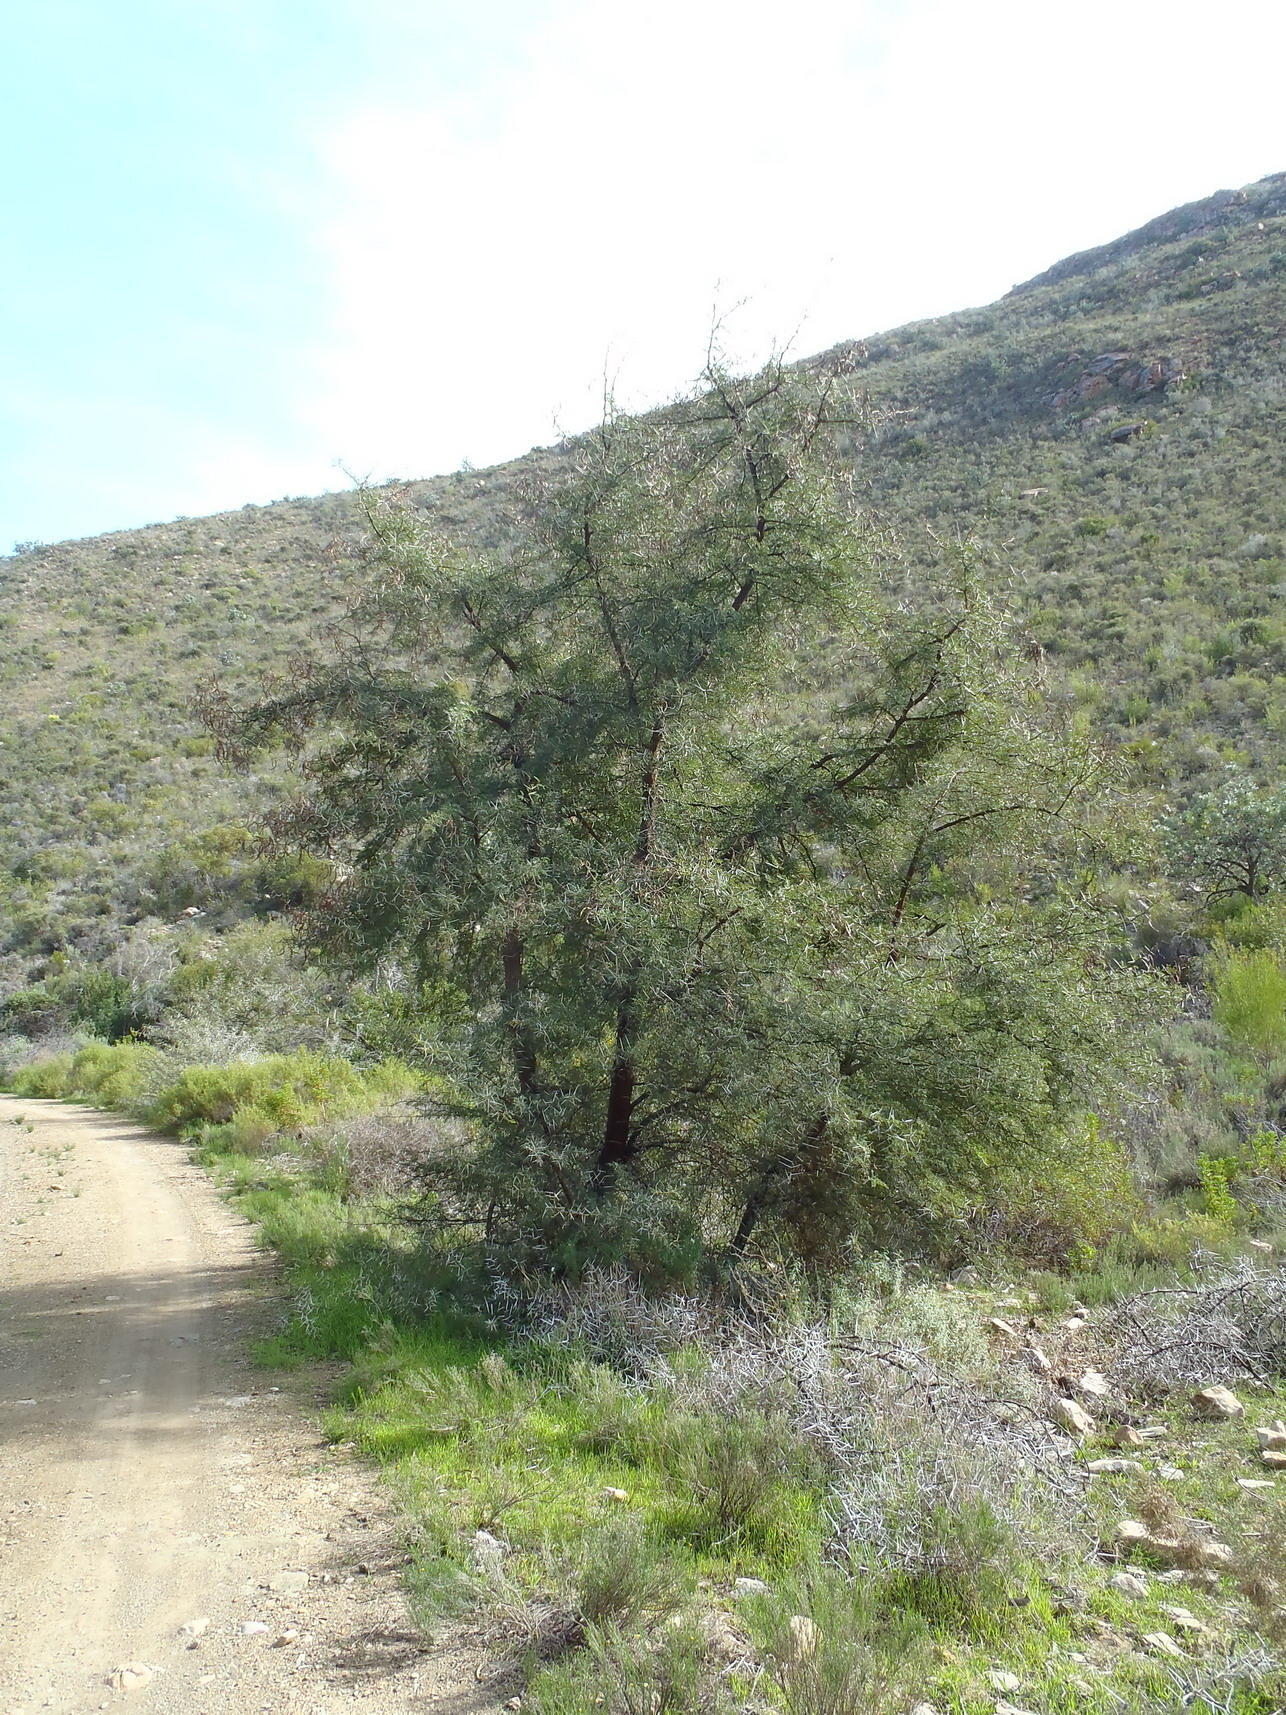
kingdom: Plantae
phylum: Tracheophyta
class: Magnoliopsida
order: Fabales
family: Fabaceae
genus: Vachellia
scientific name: Vachellia karroo
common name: Sweet thorn
